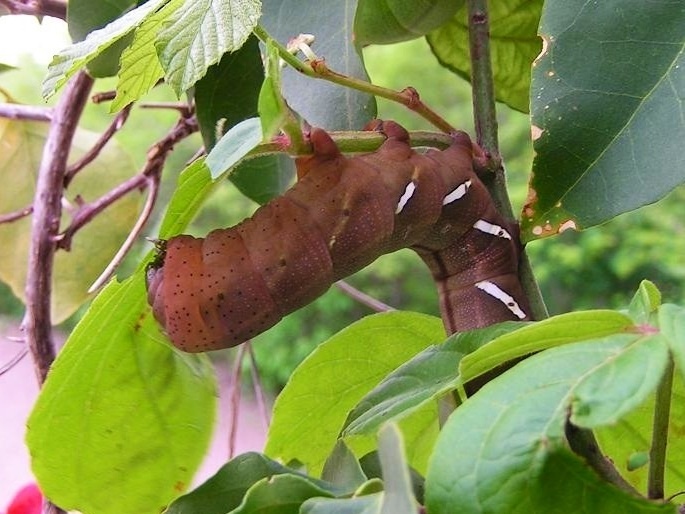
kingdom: Animalia
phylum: Arthropoda
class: Insecta
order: Lepidoptera
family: Sphingidae
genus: Eumorpha
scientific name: Eumorpha satellitia
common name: Satellite sphinx
